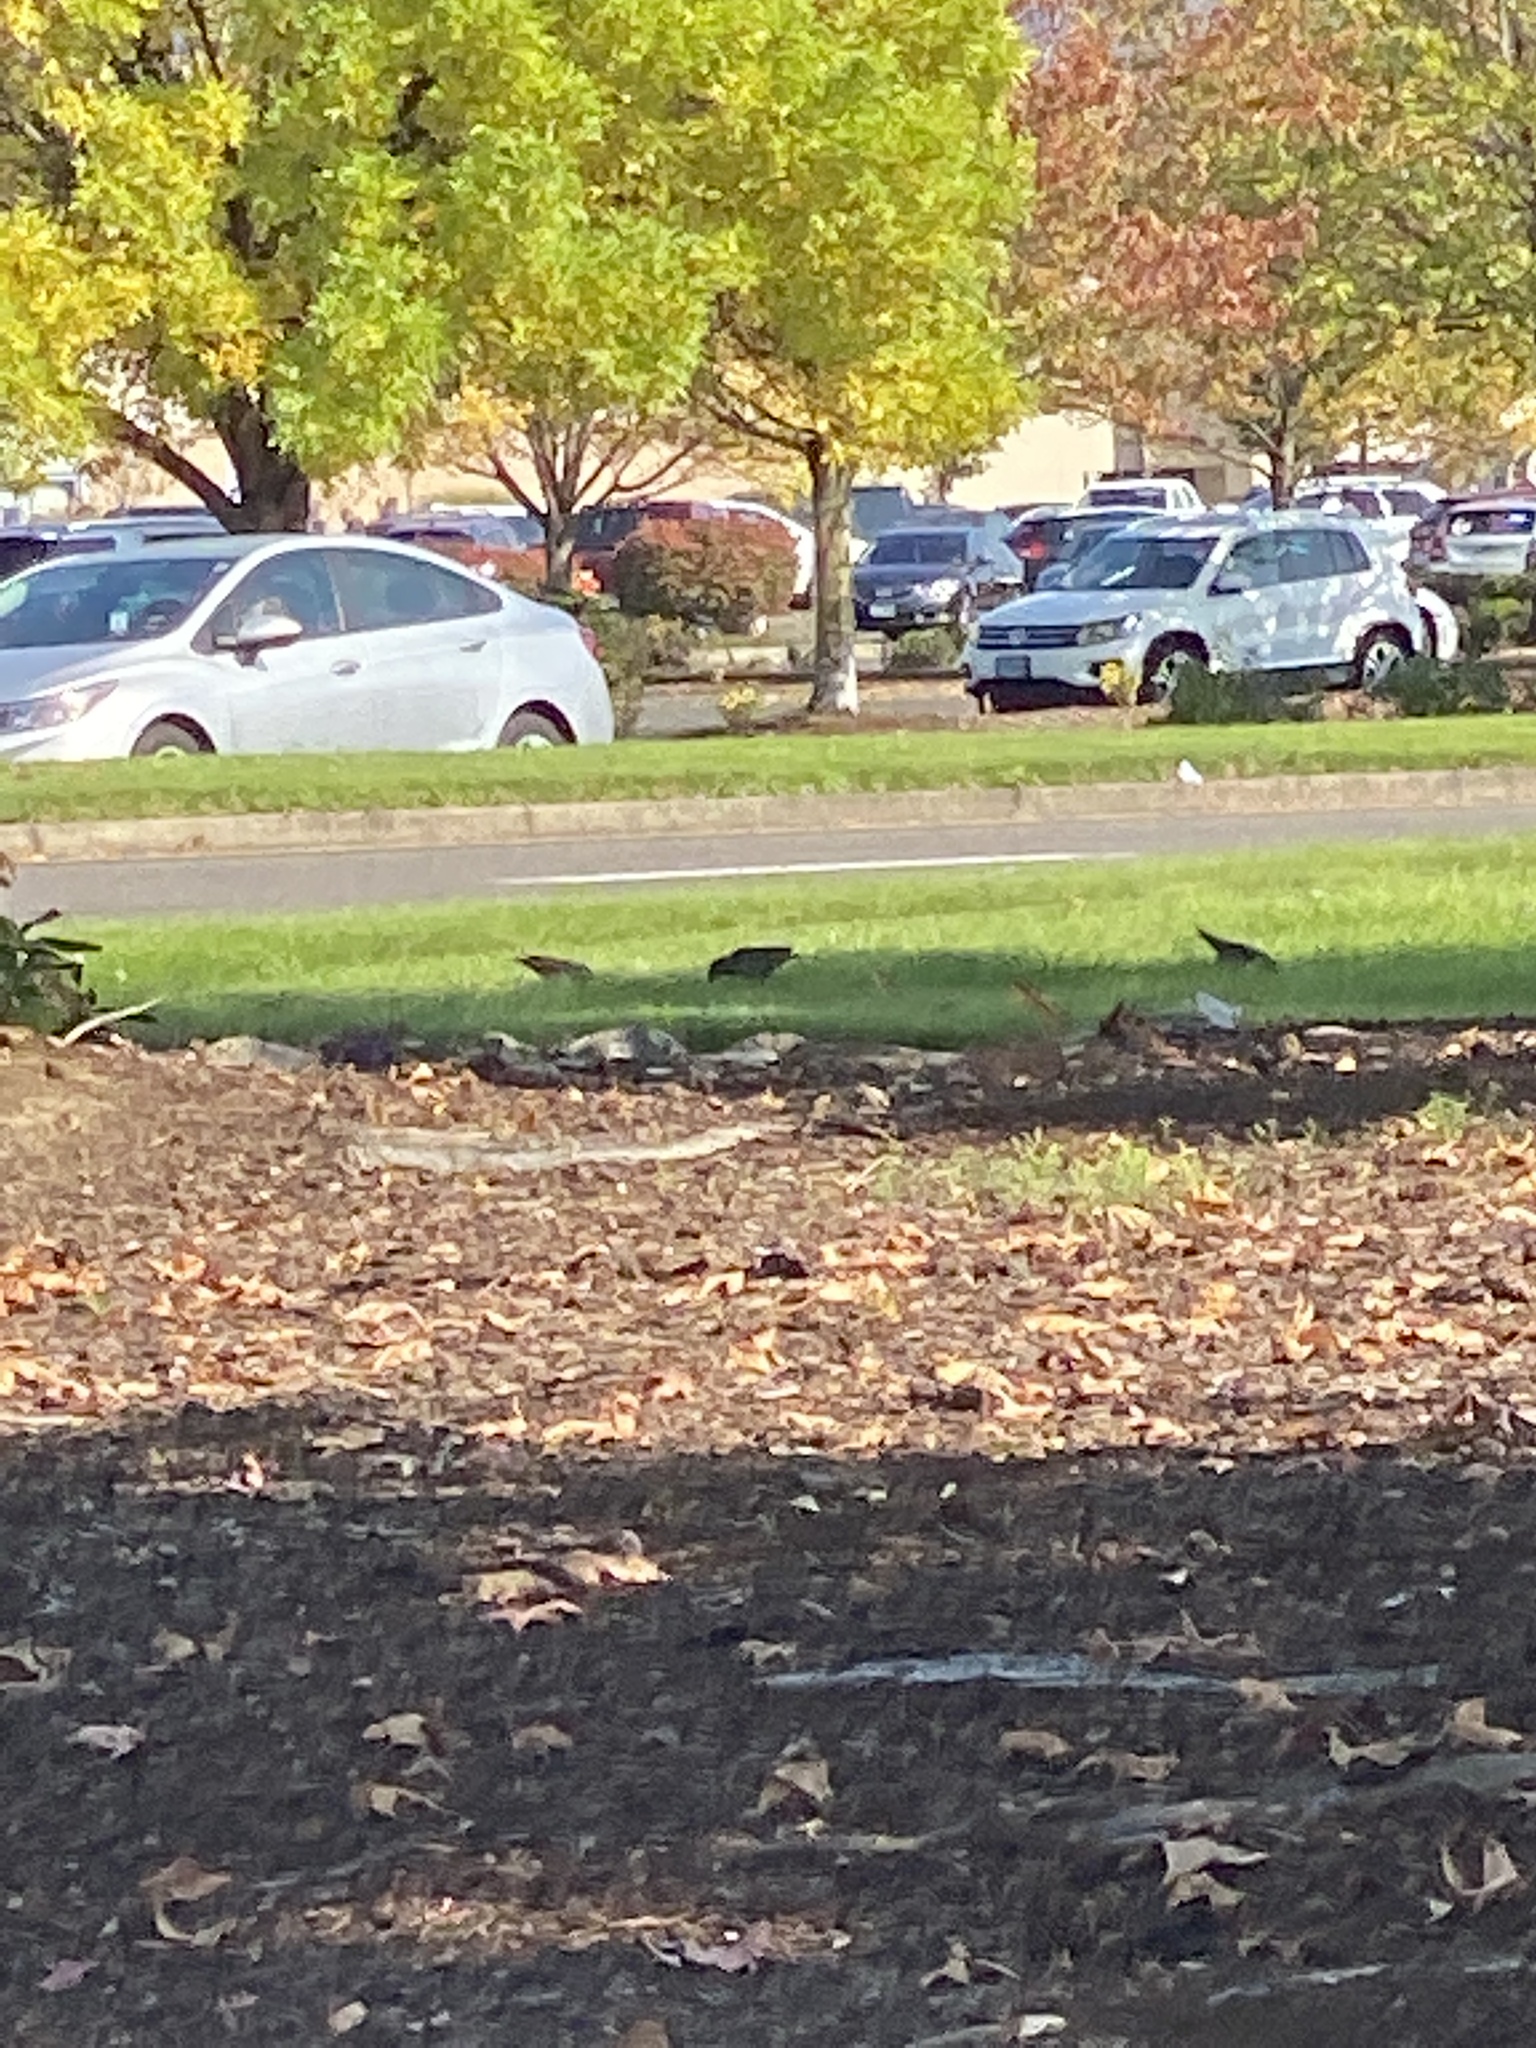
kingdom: Animalia
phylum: Chordata
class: Aves
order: Passeriformes
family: Sturnidae
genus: Sturnus
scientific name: Sturnus vulgaris
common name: Common starling
